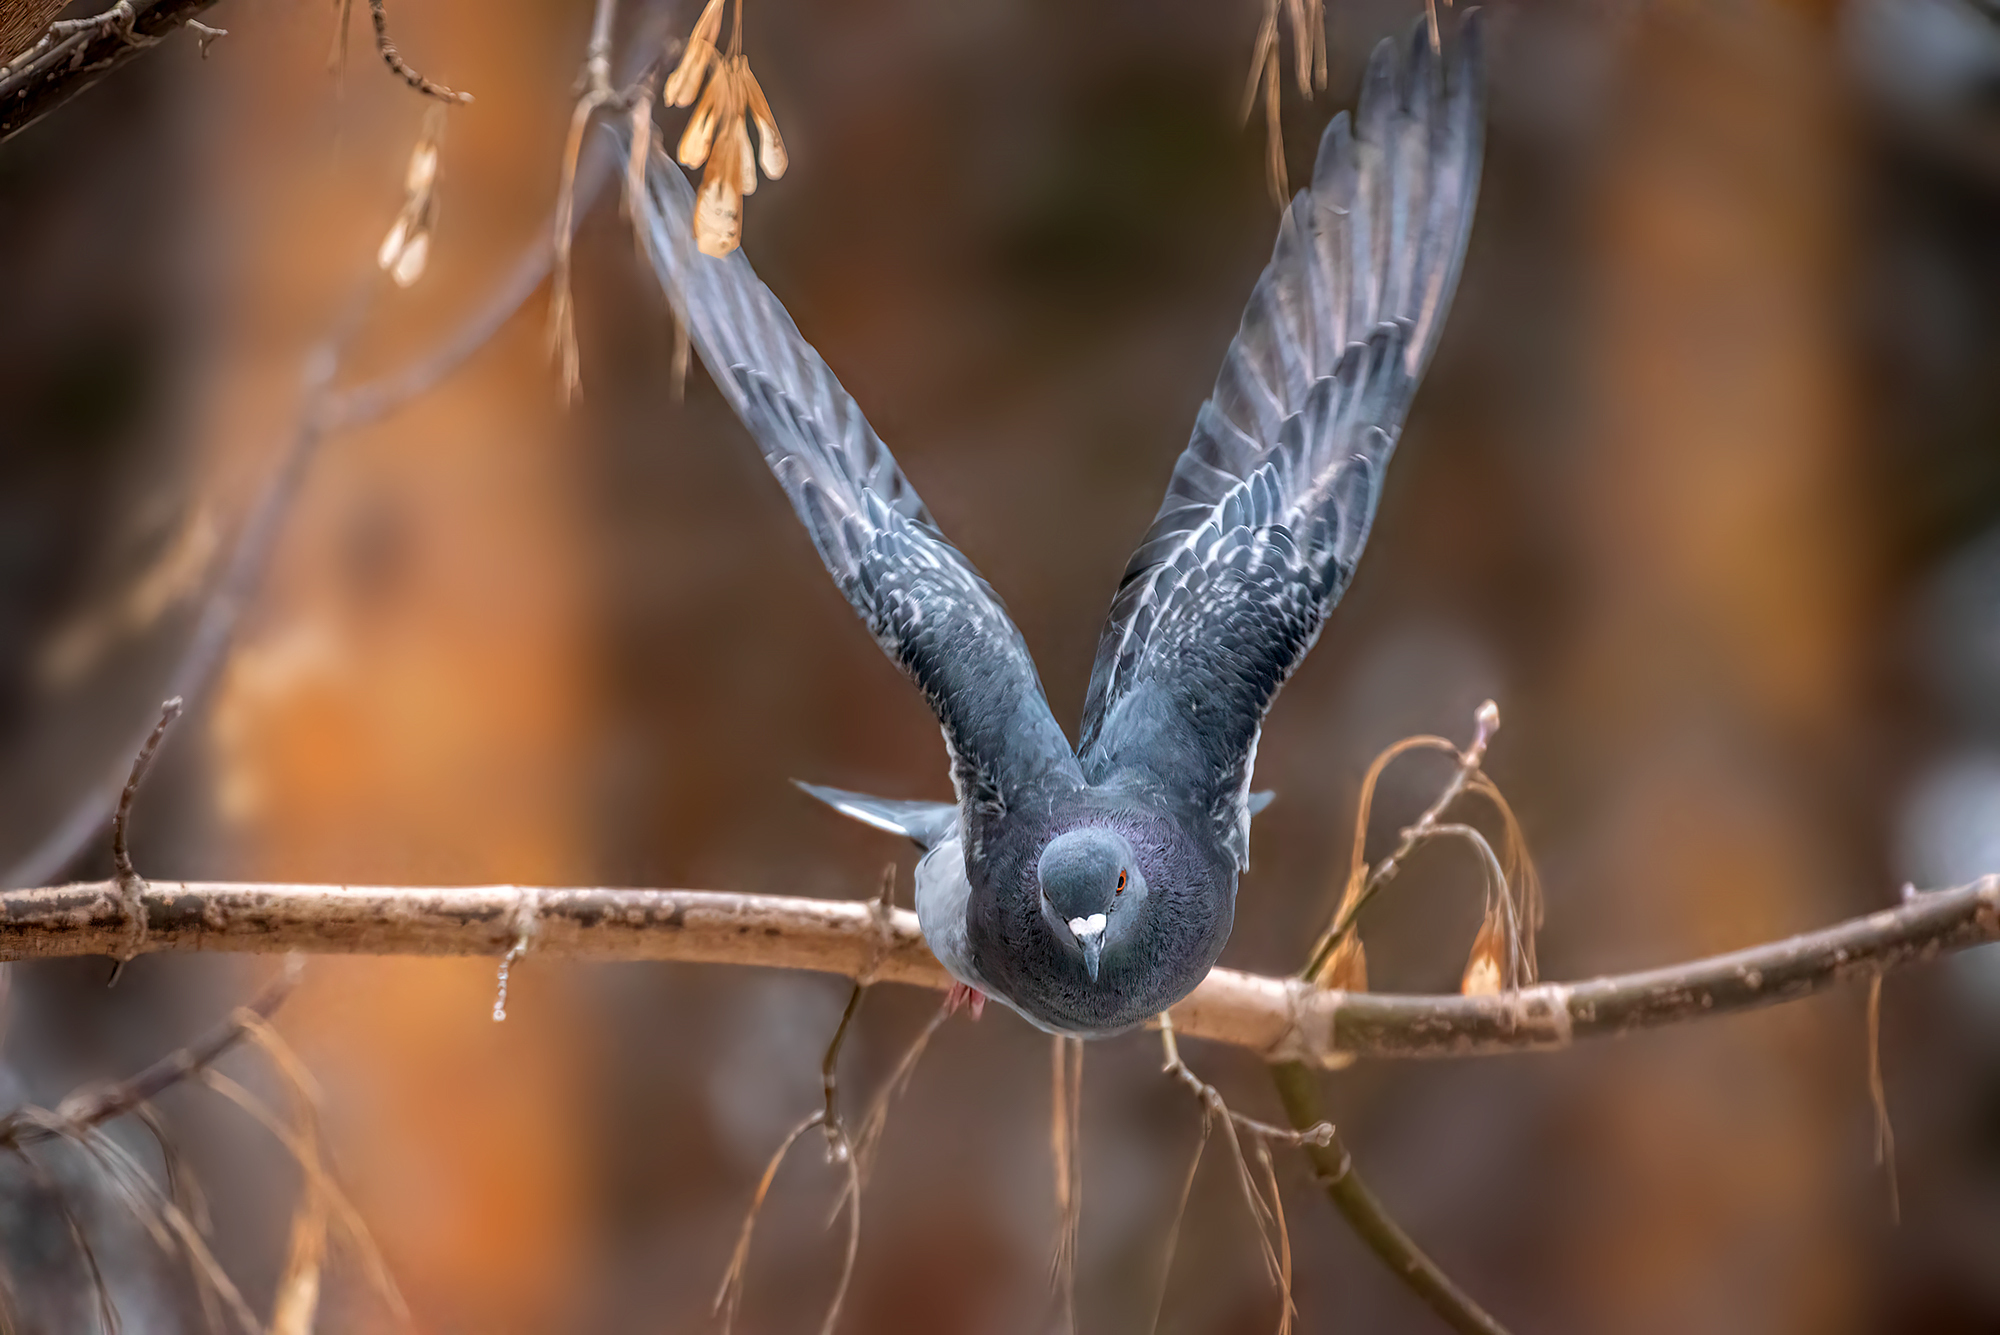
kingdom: Animalia
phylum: Chordata
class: Aves
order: Columbiformes
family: Columbidae
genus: Columba
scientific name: Columba livia
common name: Rock pigeon
